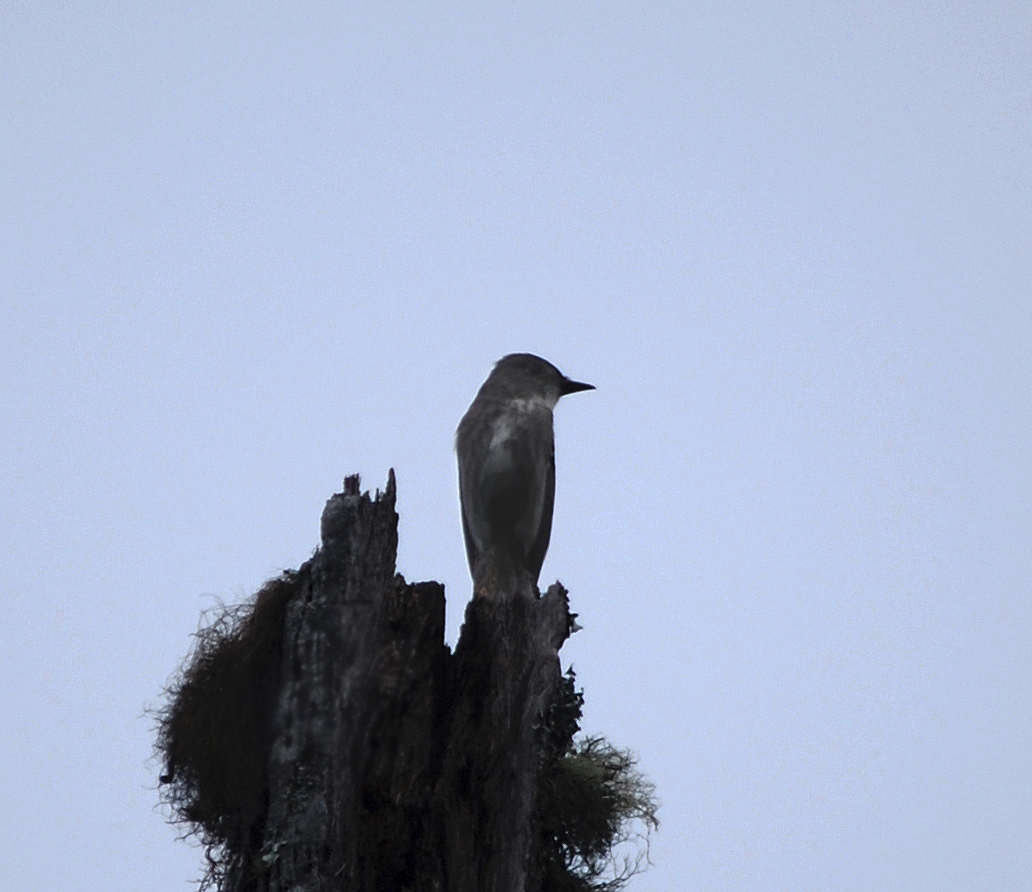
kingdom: Animalia
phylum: Chordata
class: Aves
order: Passeriformes
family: Tyrannidae
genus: Contopus
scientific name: Contopus cooperi
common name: Olive-sided flycatcher
